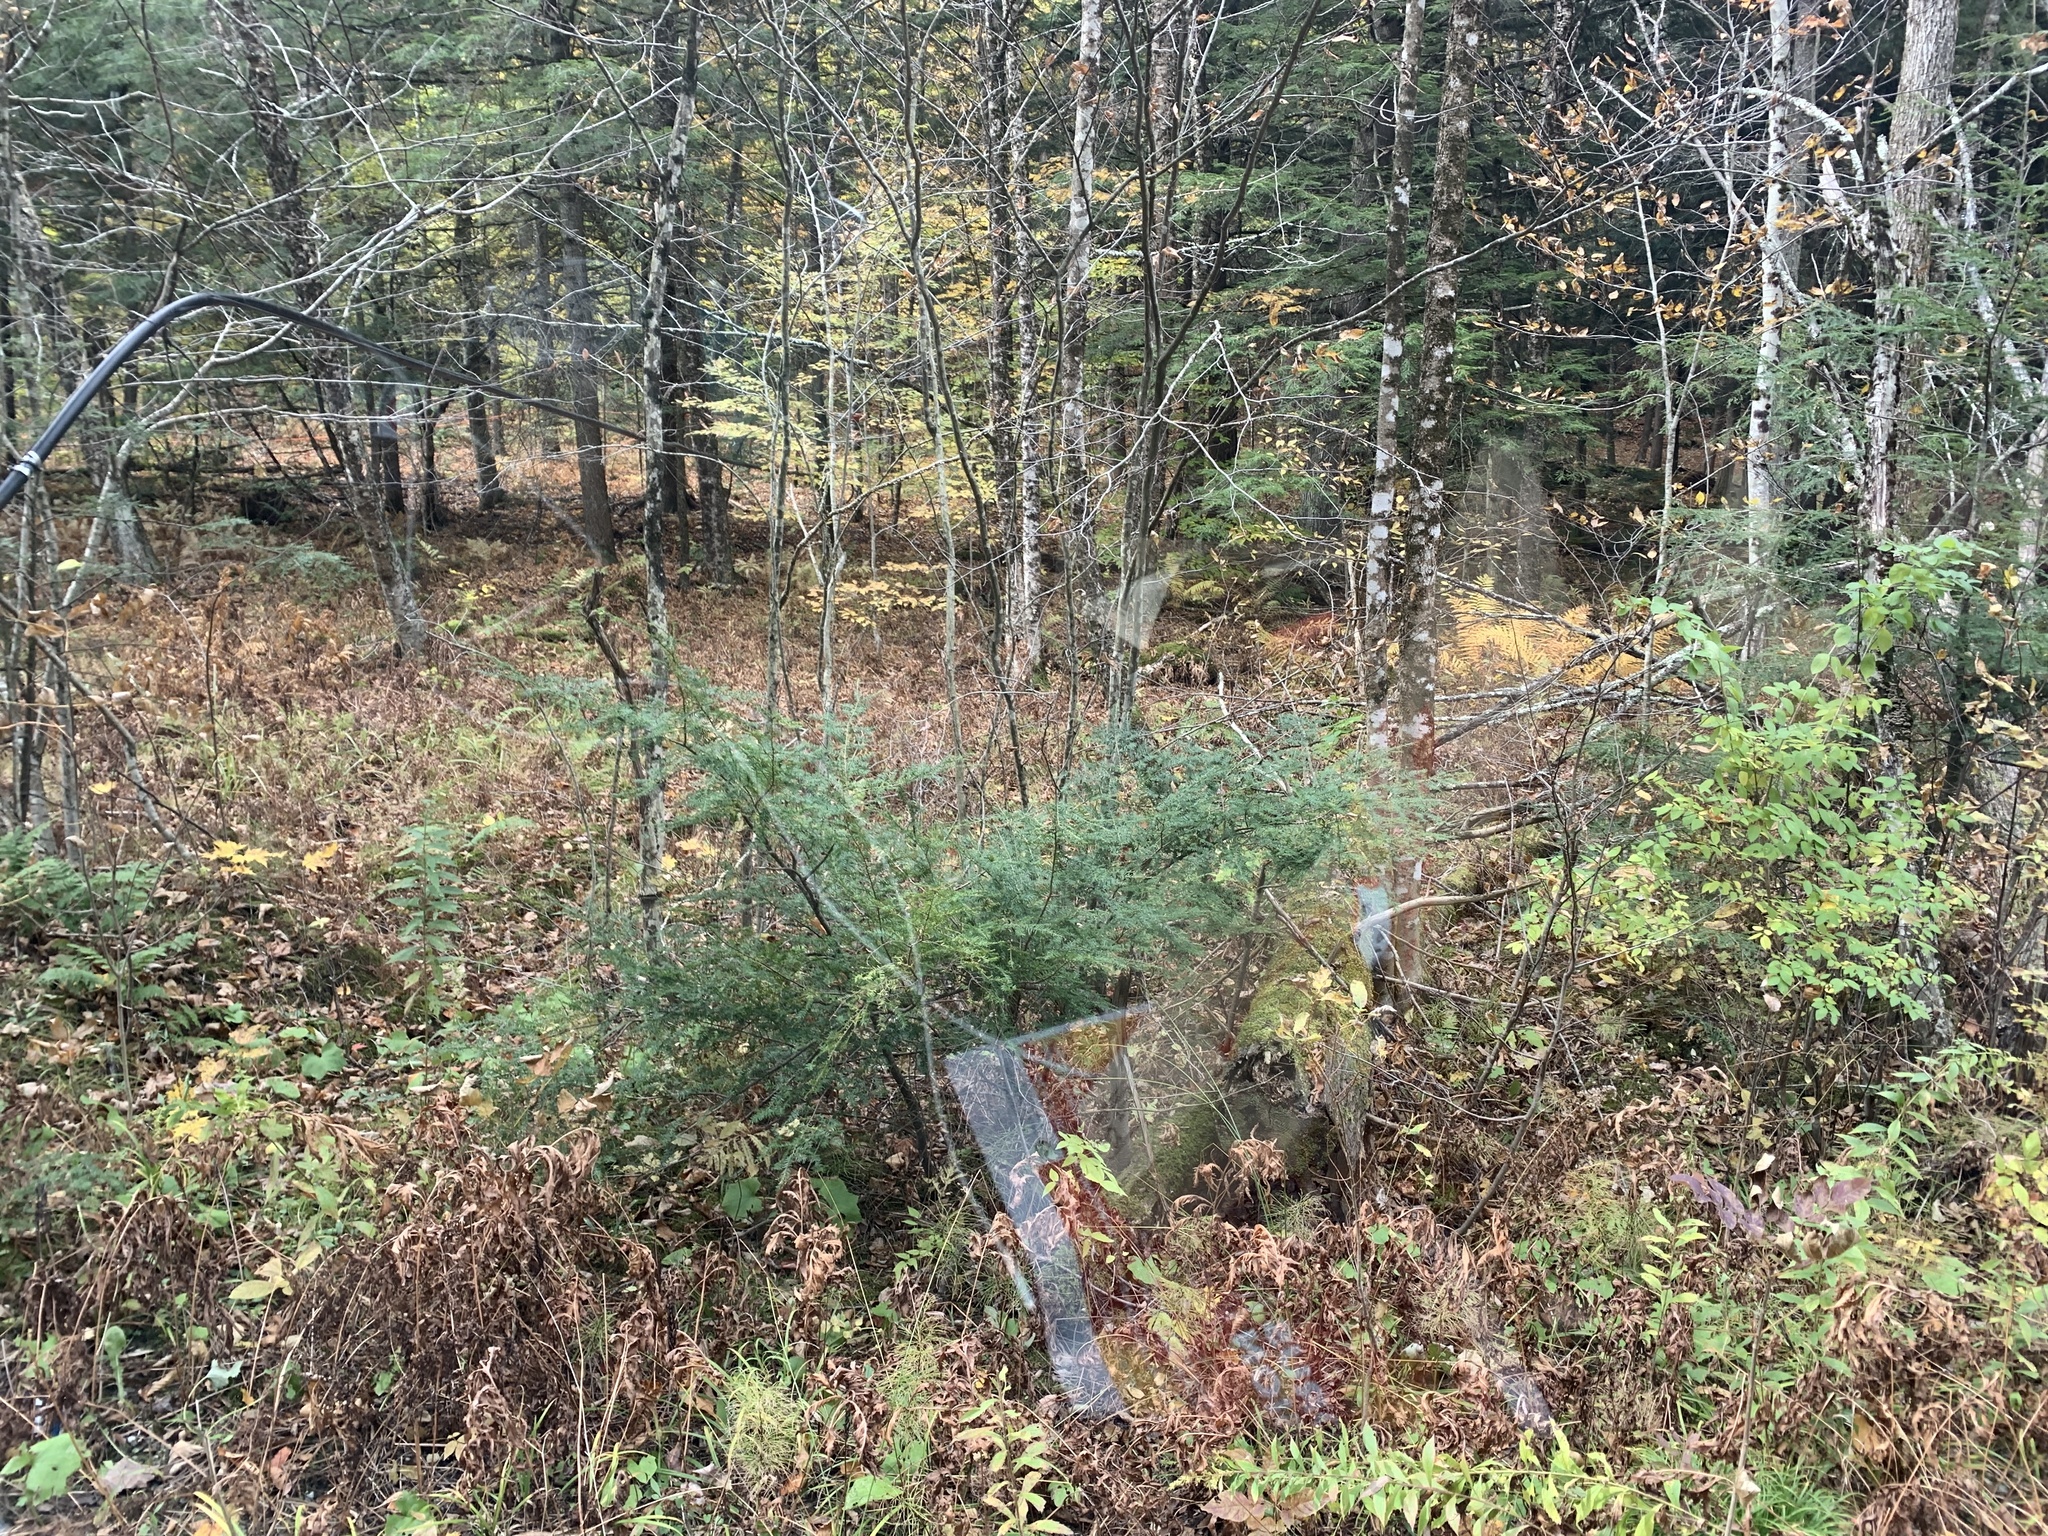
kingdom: Plantae
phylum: Tracheophyta
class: Pinopsida
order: Pinales
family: Pinaceae
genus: Tsuga
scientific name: Tsuga canadensis
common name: Eastern hemlock
